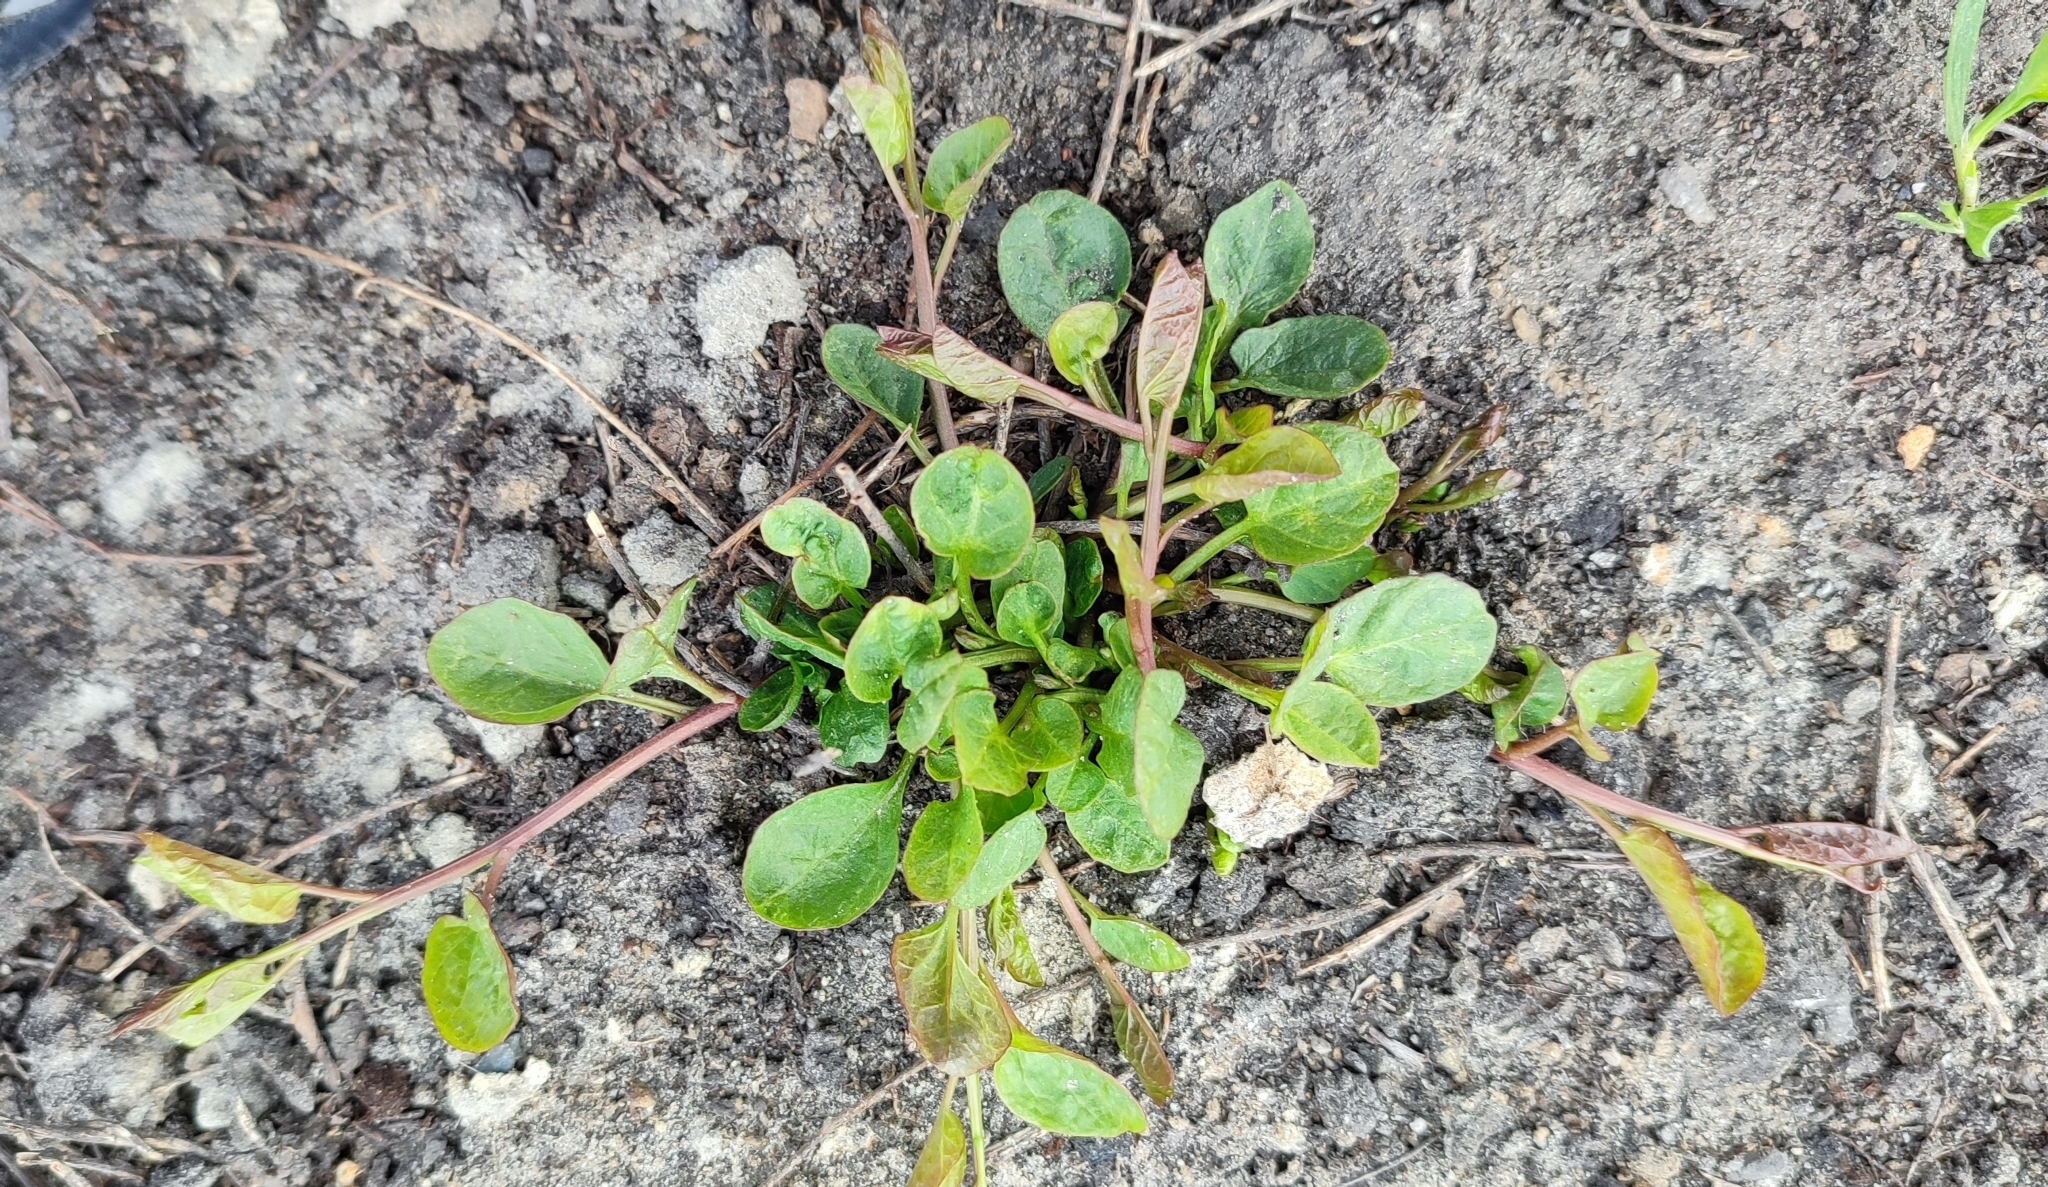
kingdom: Plantae
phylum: Tracheophyta
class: Magnoliopsida
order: Solanales
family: Convolvulaceae
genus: Convolvulus
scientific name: Convolvulus arvensis
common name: Field bindweed
